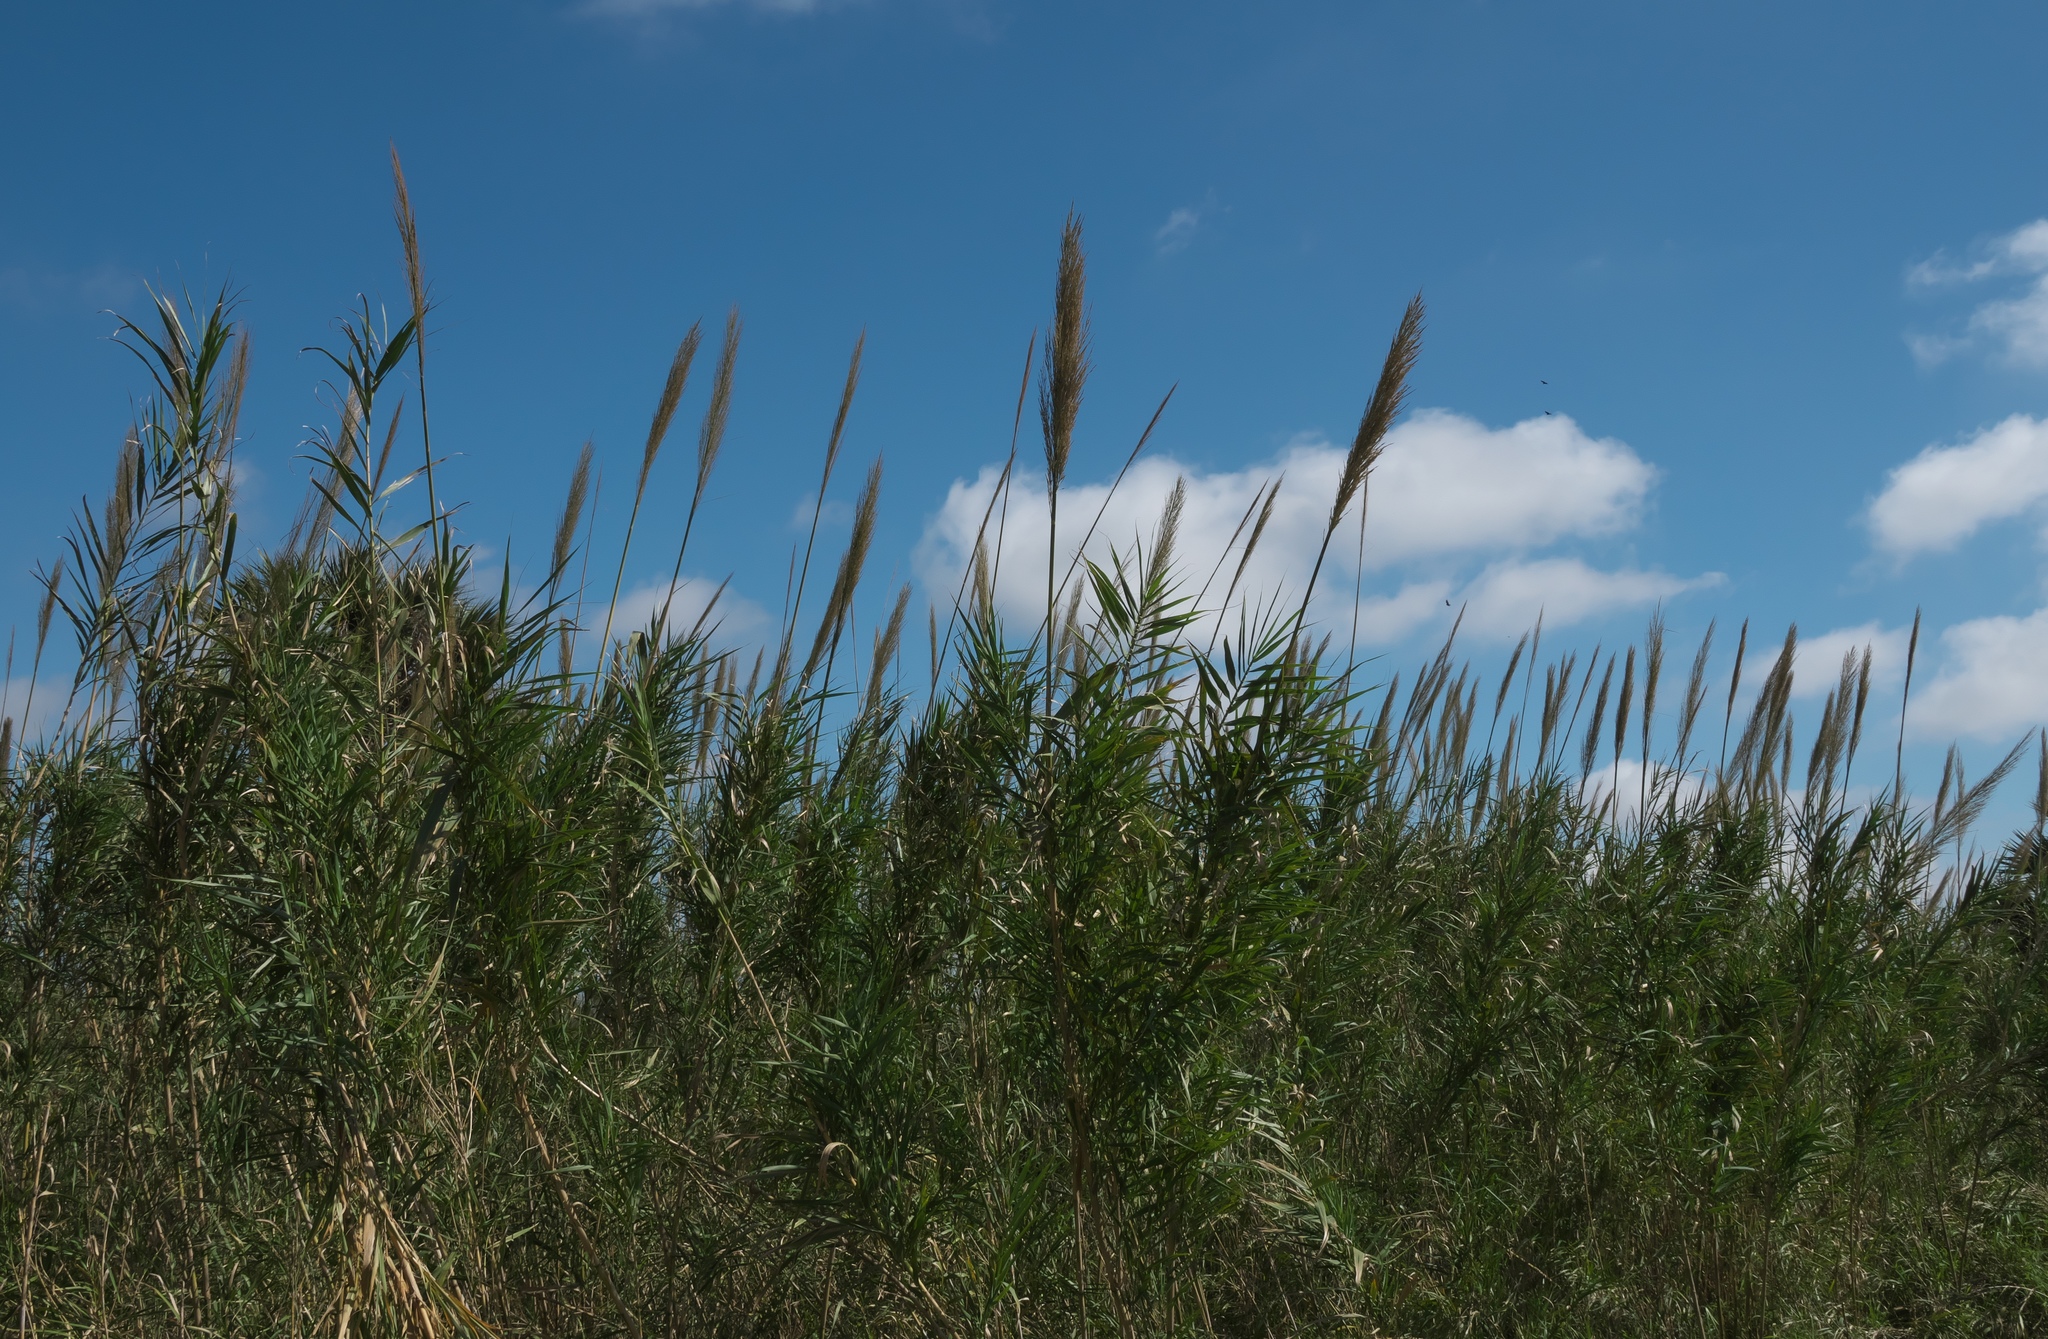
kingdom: Plantae
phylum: Tracheophyta
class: Liliopsida
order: Poales
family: Poaceae
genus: Arundo
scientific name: Arundo donax
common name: Giant reed
